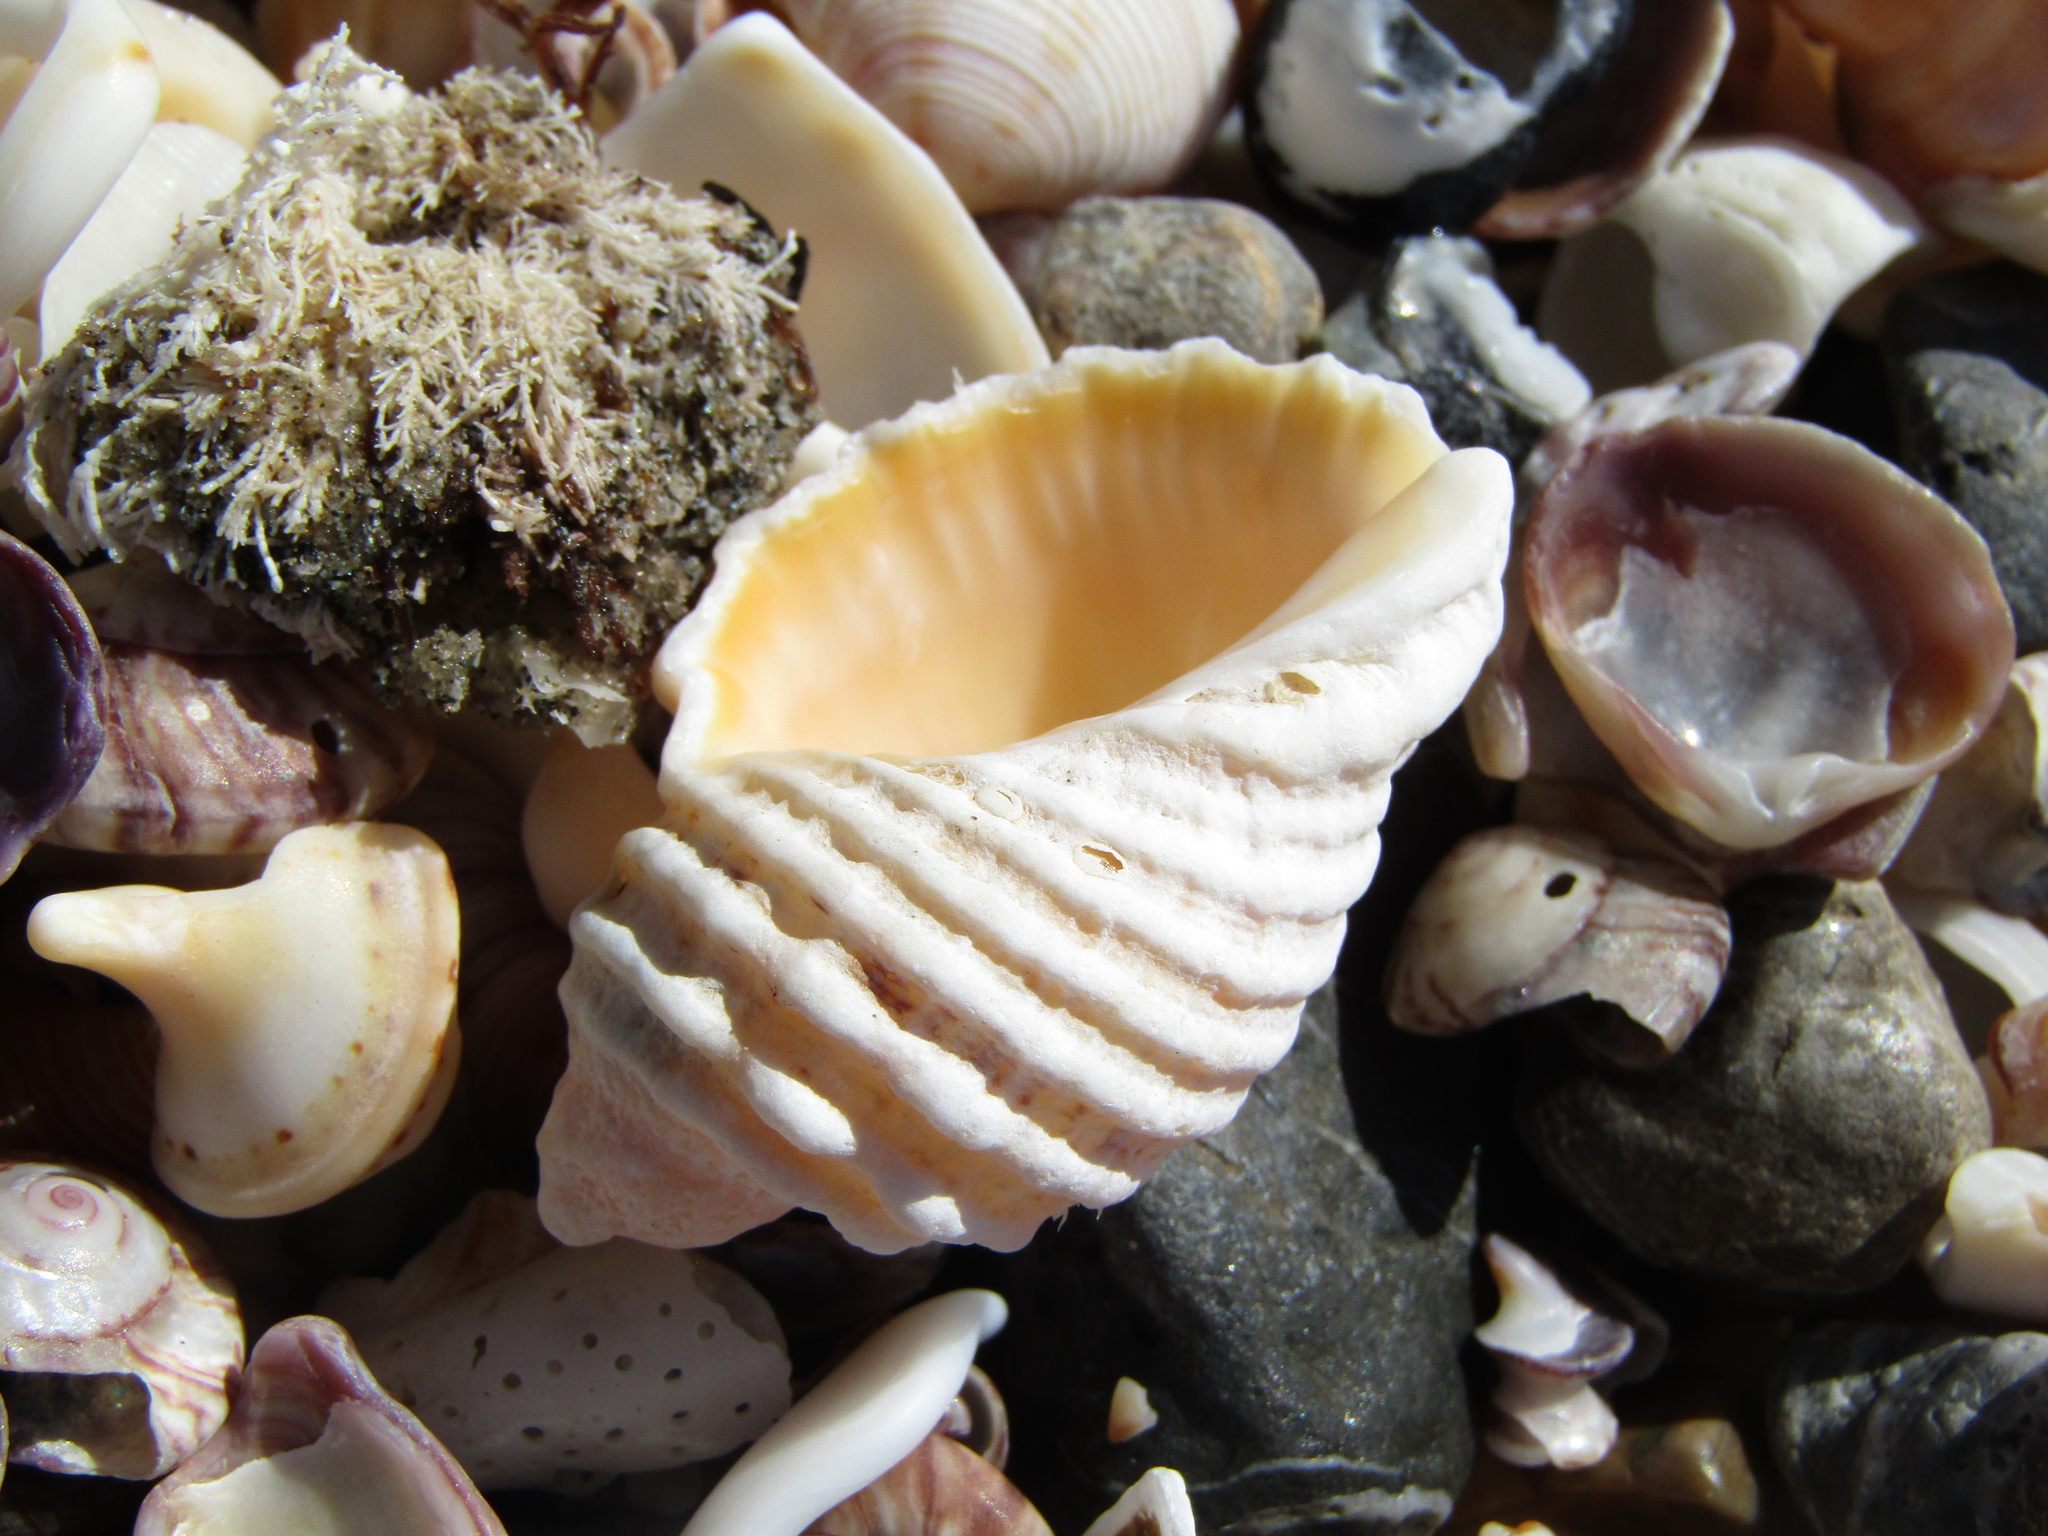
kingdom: Animalia
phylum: Mollusca
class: Gastropoda
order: Neogastropoda
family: Muricidae
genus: Dicathais
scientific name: Dicathais orbita
